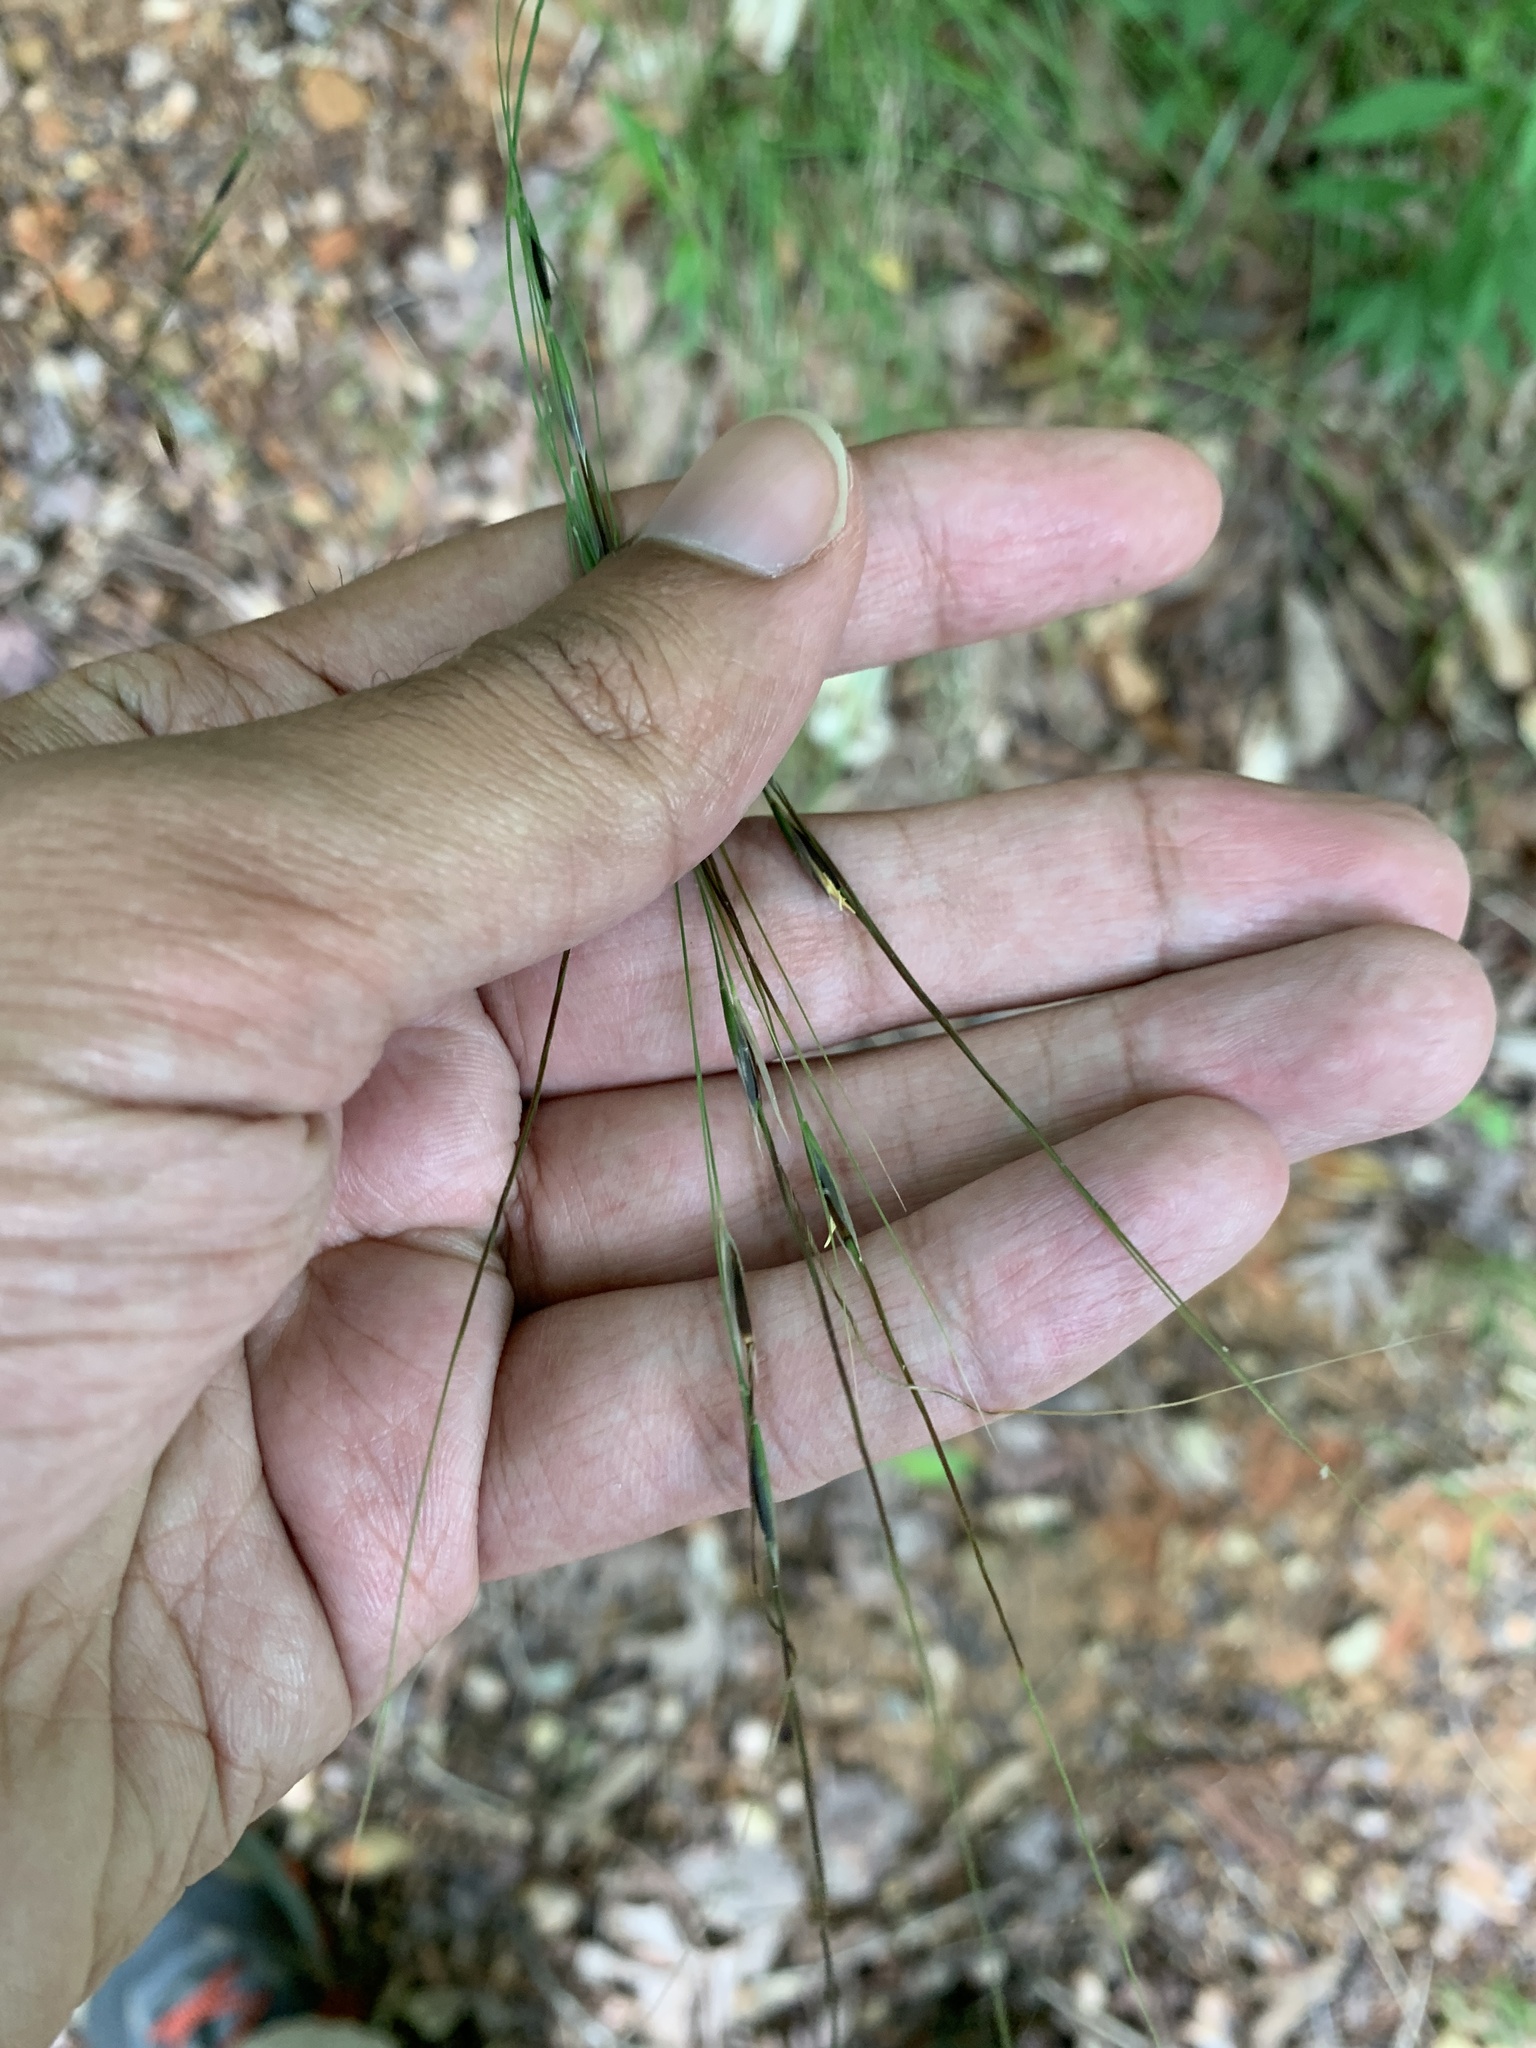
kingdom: Plantae
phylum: Tracheophyta
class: Liliopsida
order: Poales
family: Poaceae
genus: Piptochaetium
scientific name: Piptochaetium avenaceum
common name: Black bunchgrass
